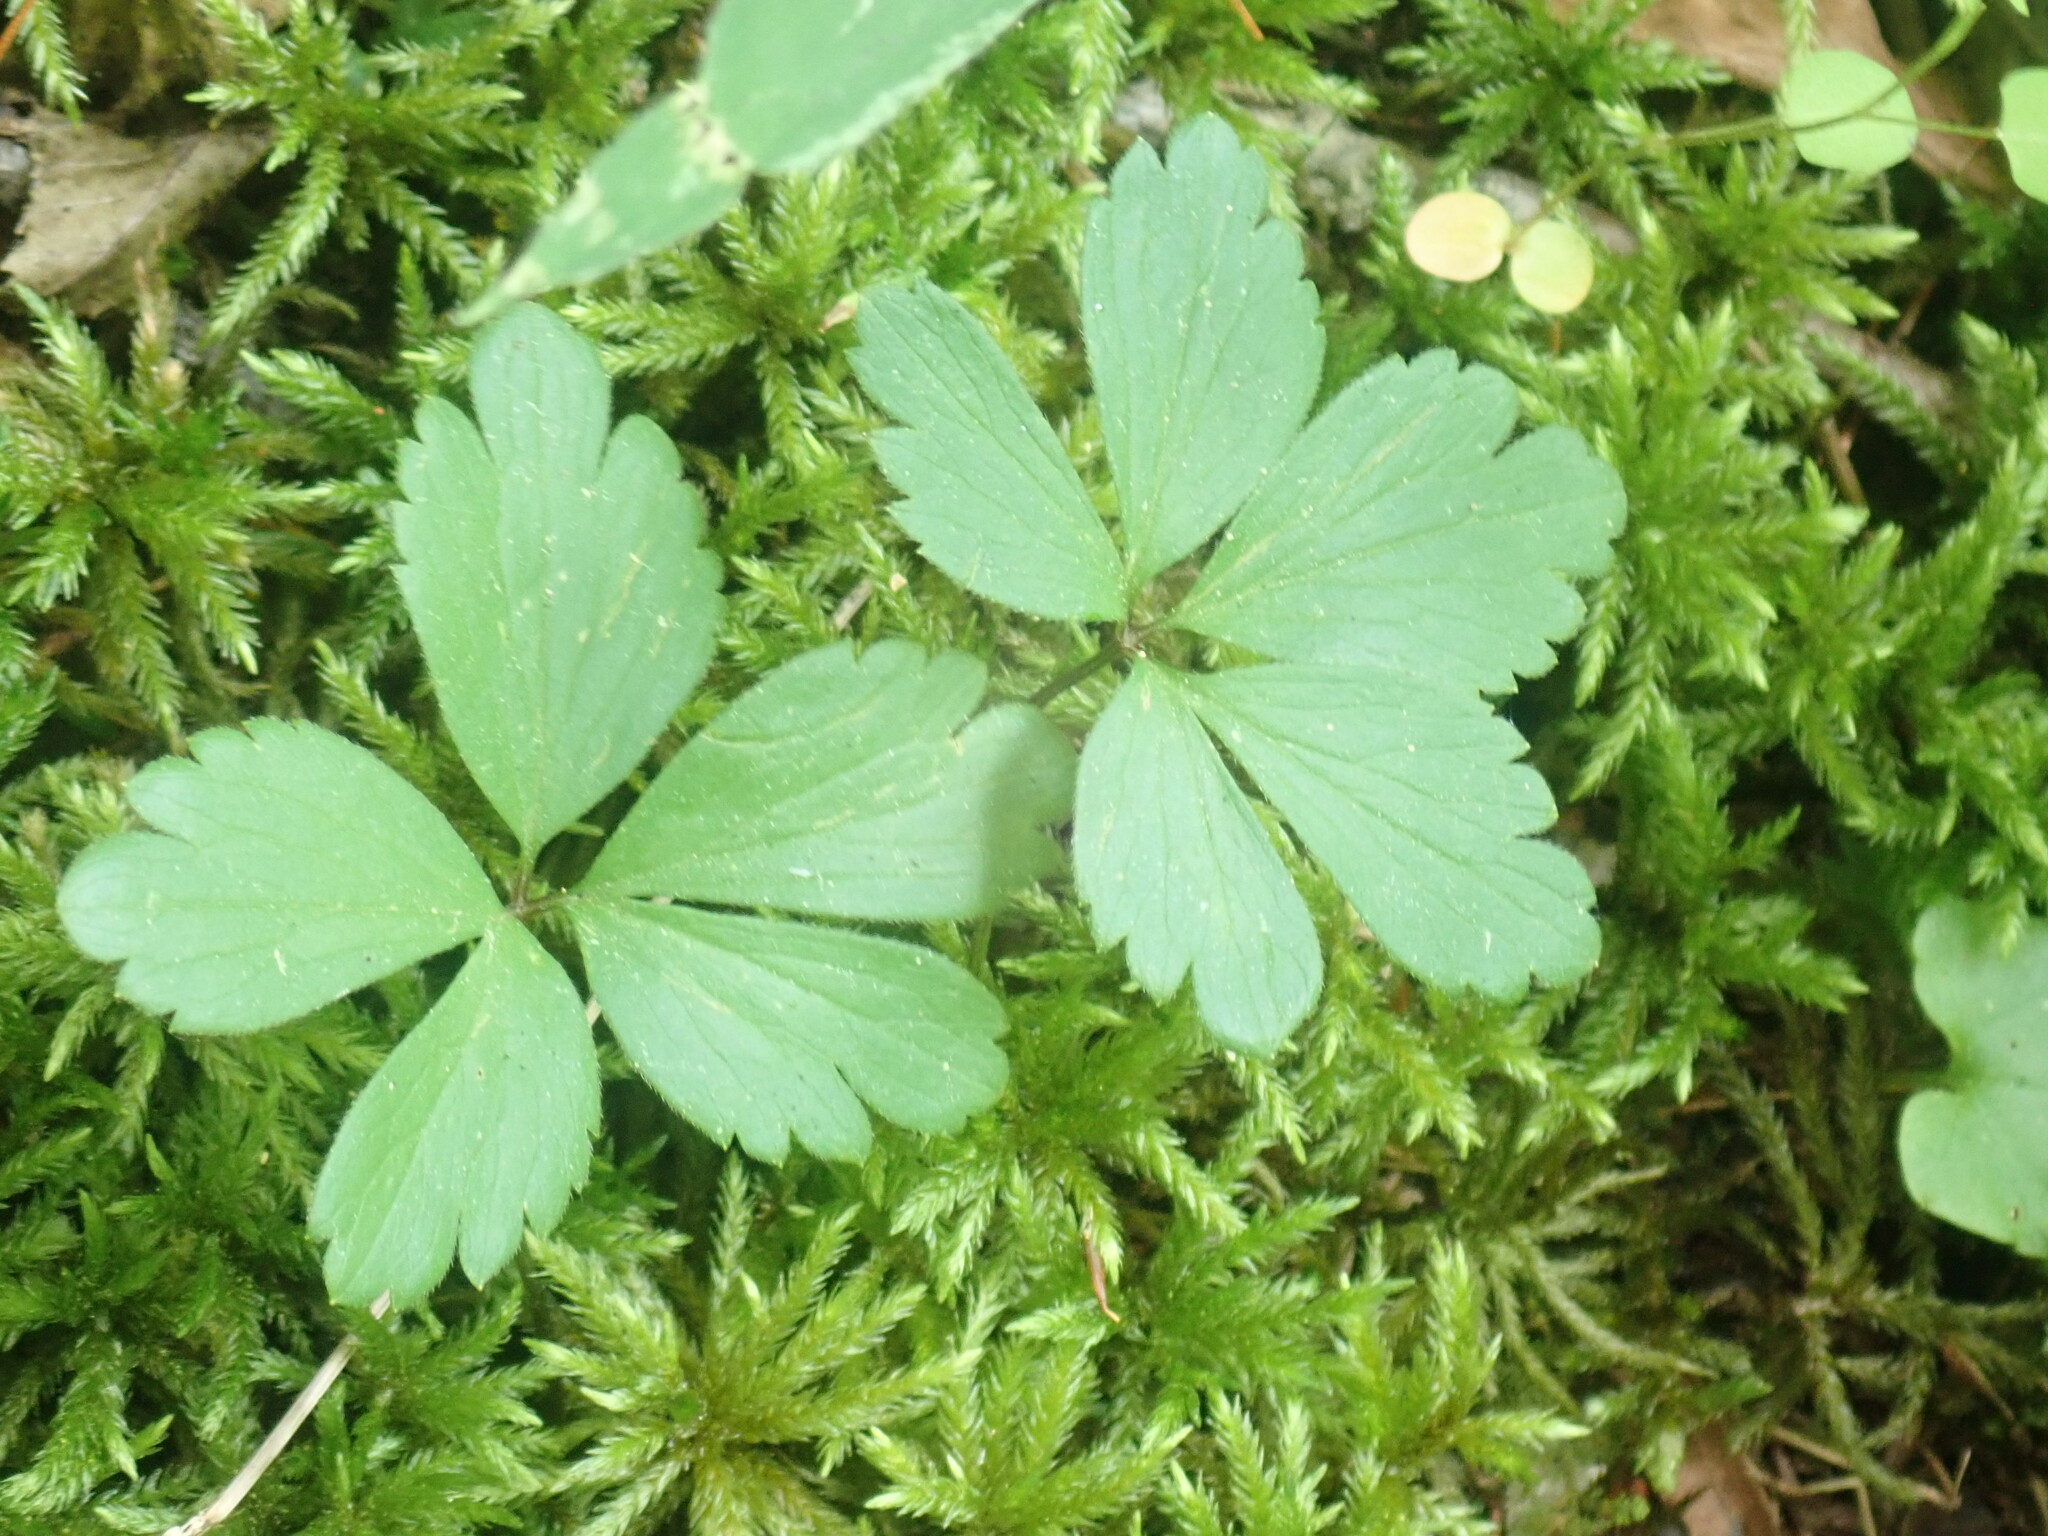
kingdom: Plantae
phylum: Tracheophyta
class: Magnoliopsida
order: Ranunculales
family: Ranunculaceae
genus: Anemone
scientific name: Anemone quinquefolia
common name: Wood anemone
